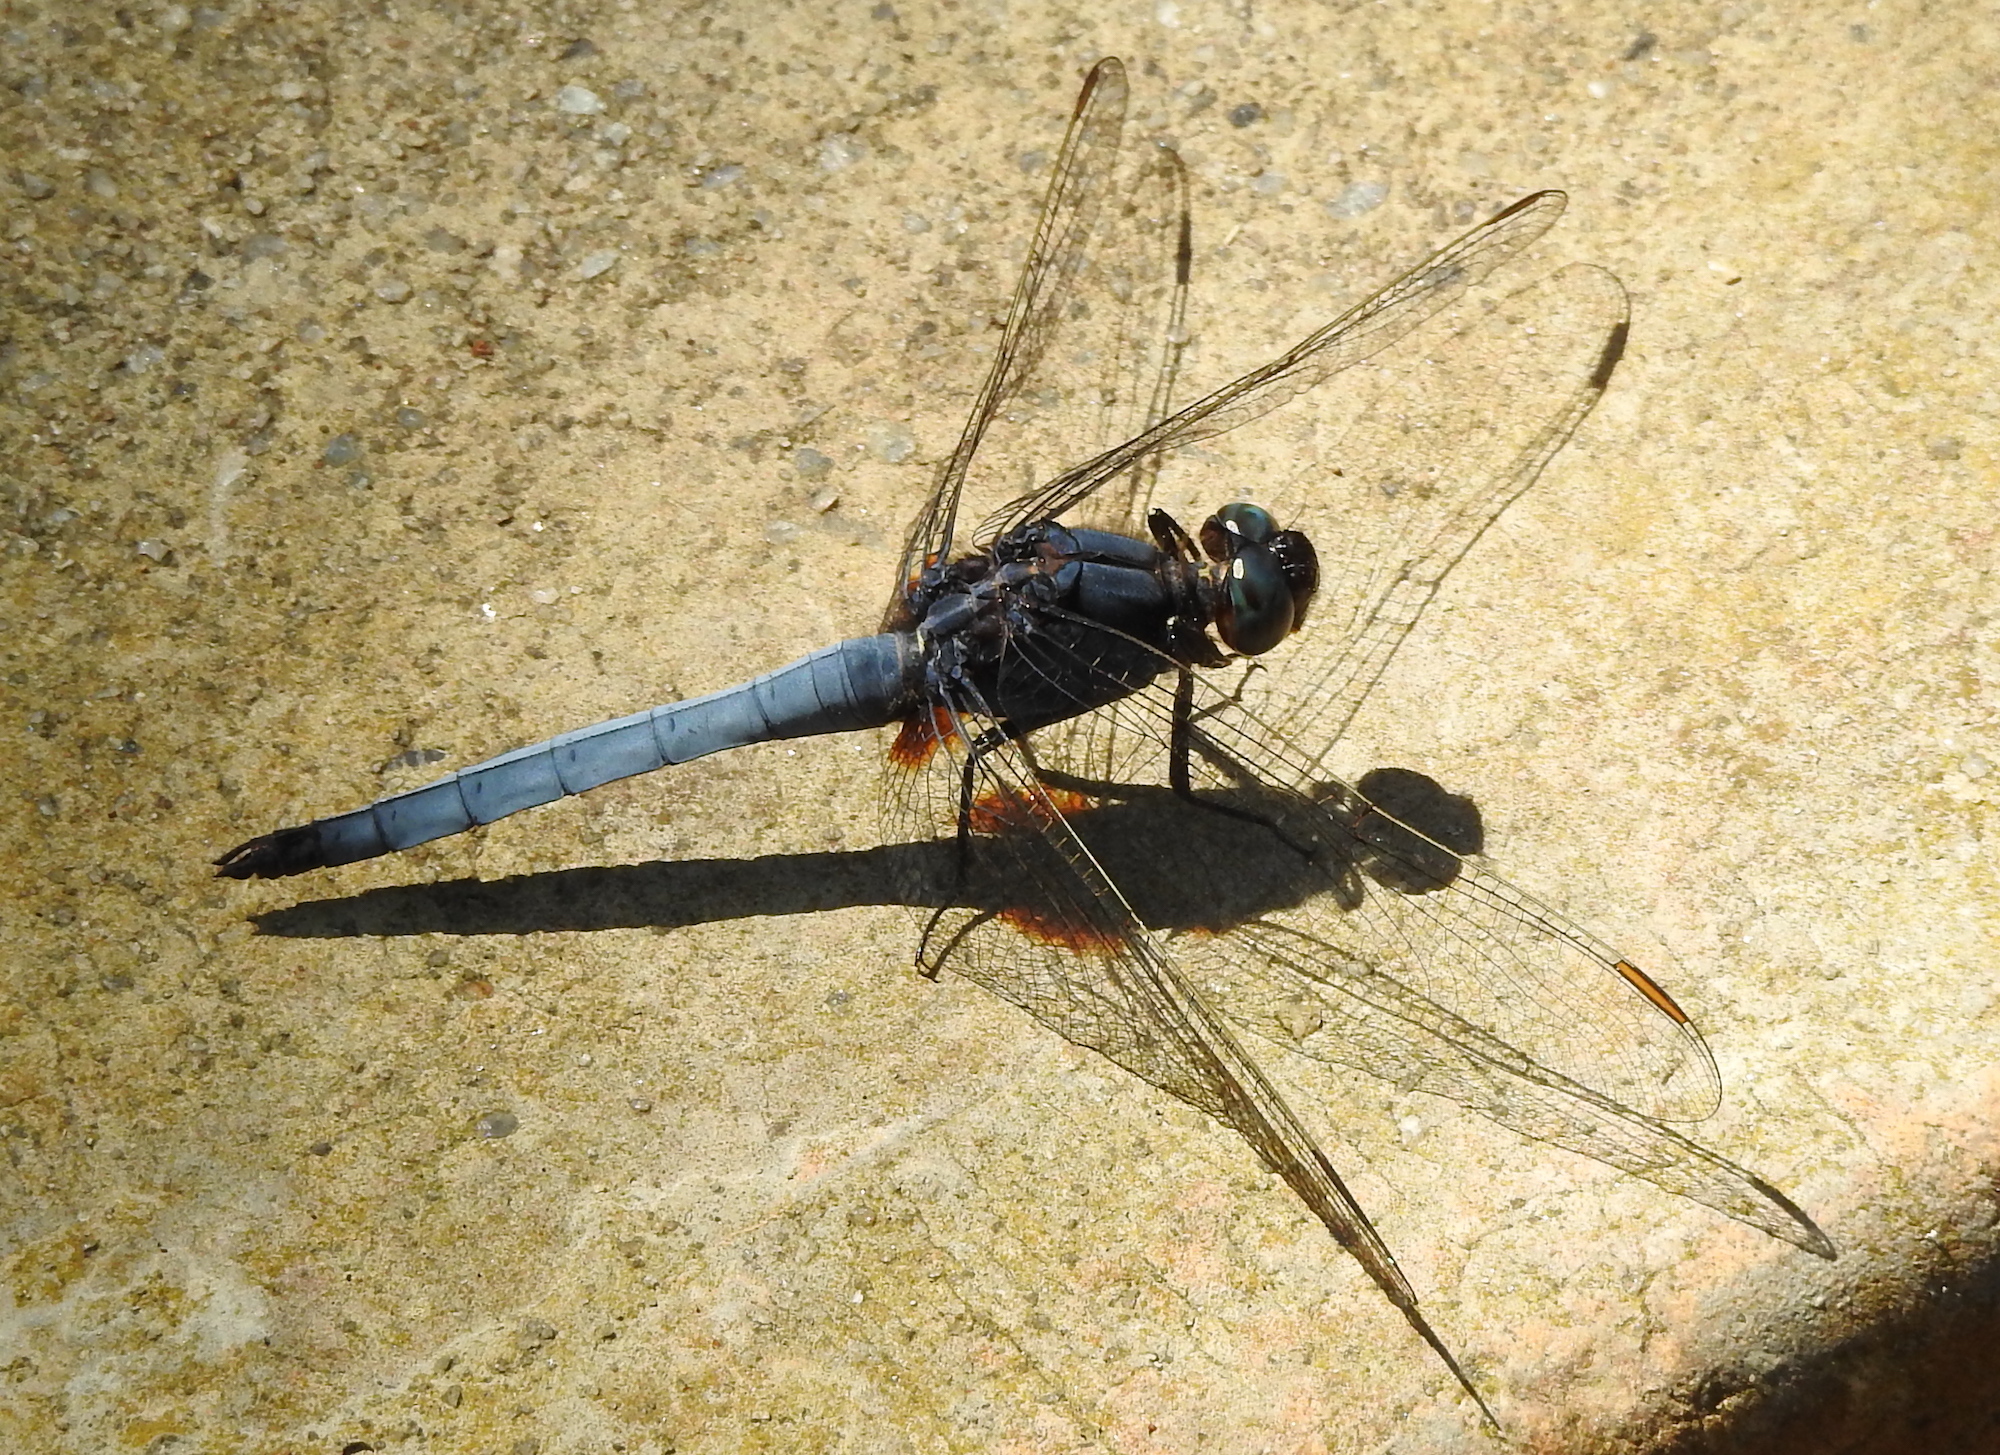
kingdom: Animalia
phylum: Arthropoda
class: Insecta
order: Odonata
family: Libellulidae
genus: Orthetrum
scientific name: Orthetrum glaucum
